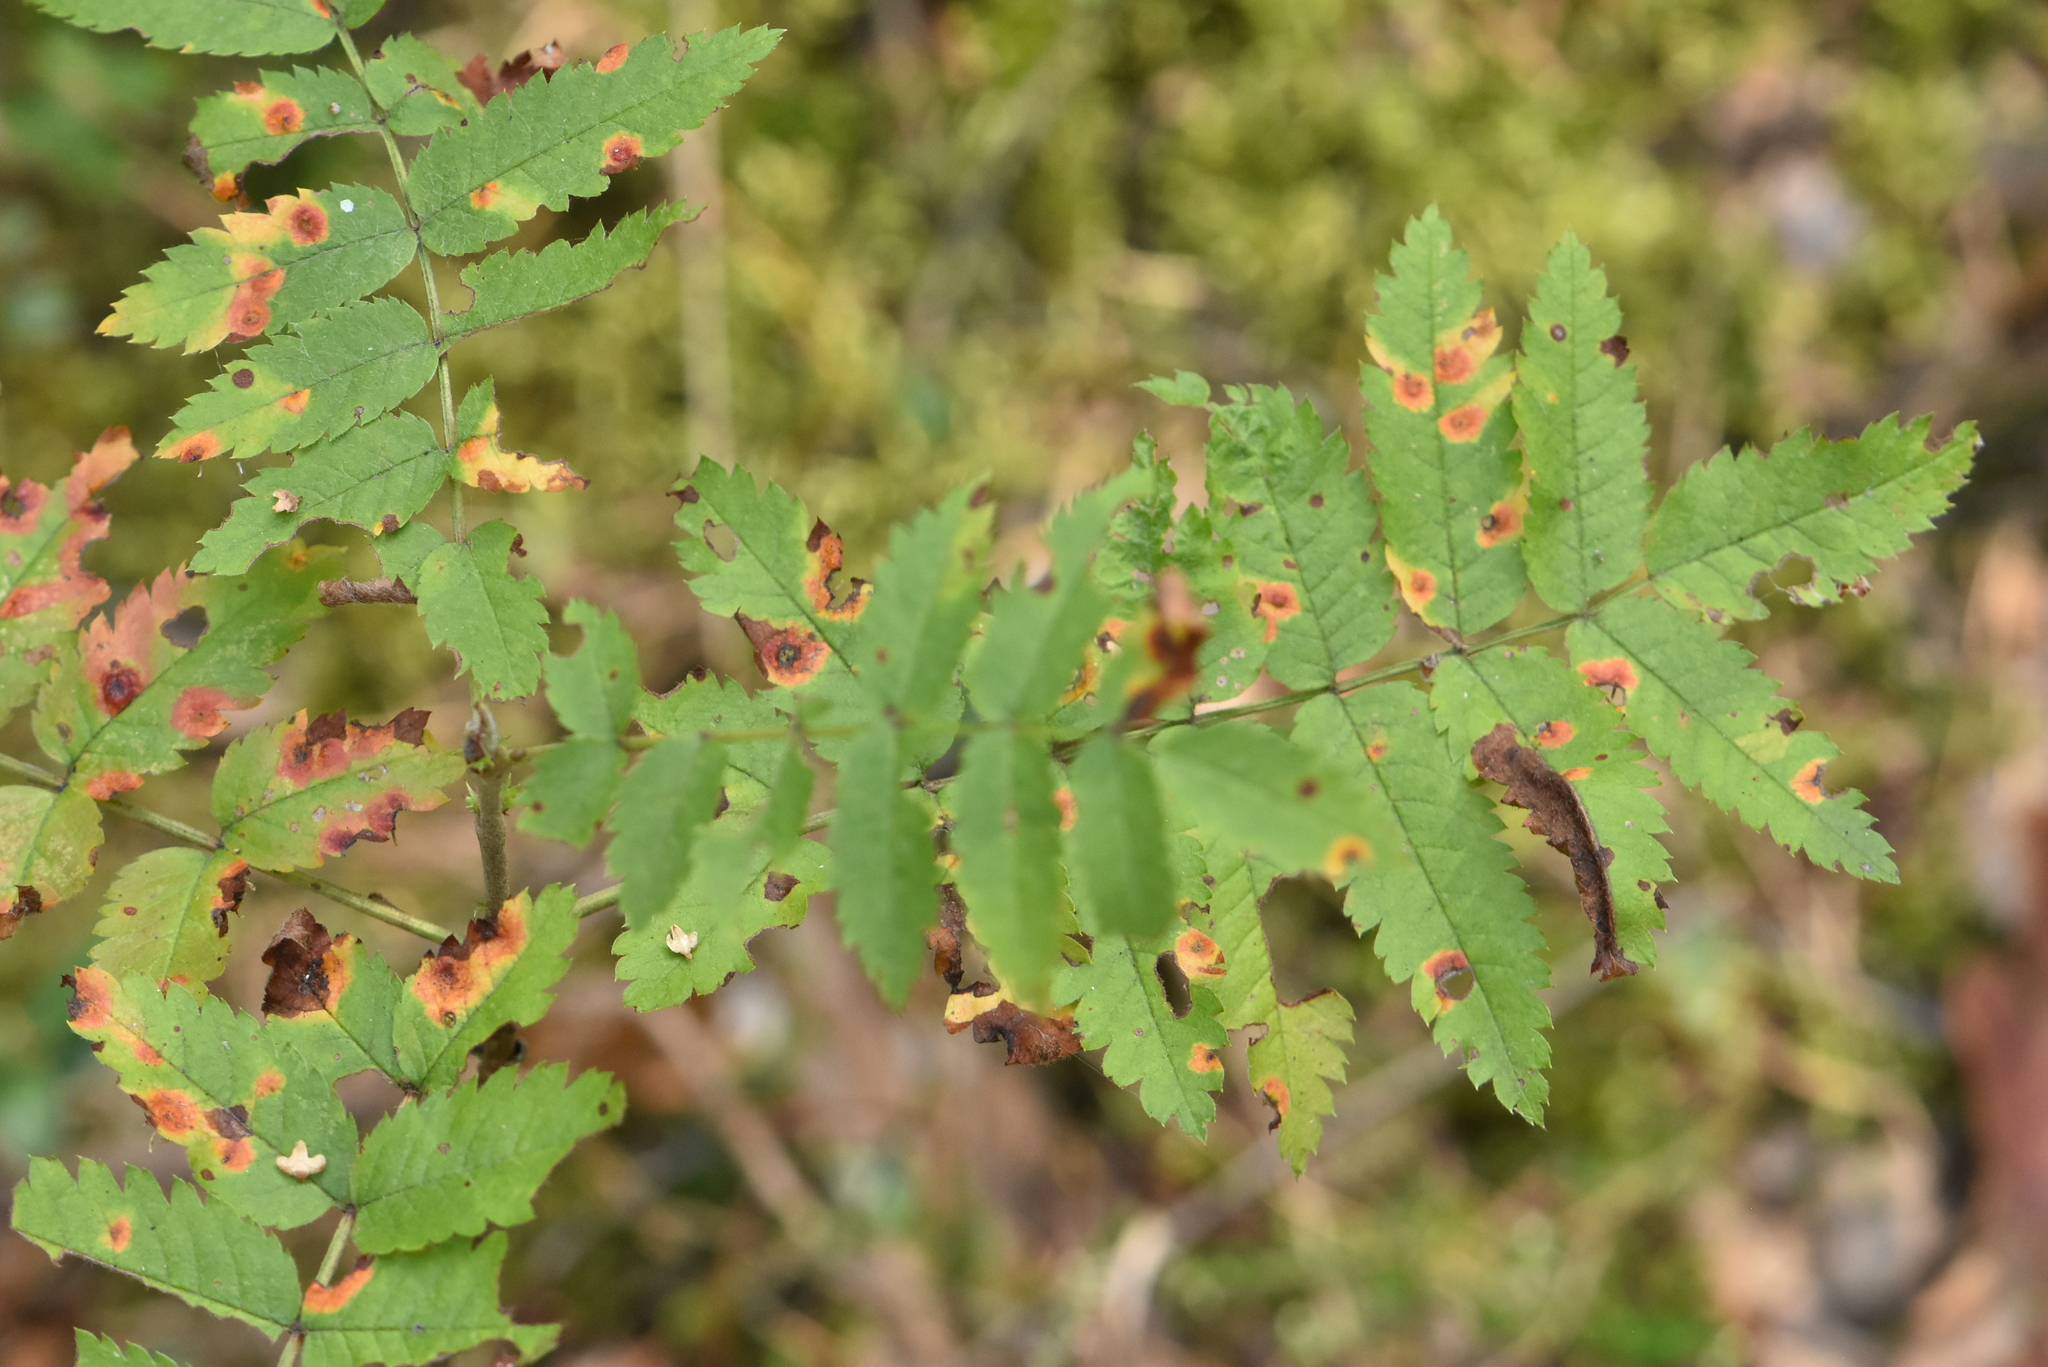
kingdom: Plantae
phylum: Tracheophyta
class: Magnoliopsida
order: Rosales
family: Rosaceae
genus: Sorbus
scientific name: Sorbus aucuparia
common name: Rowan
